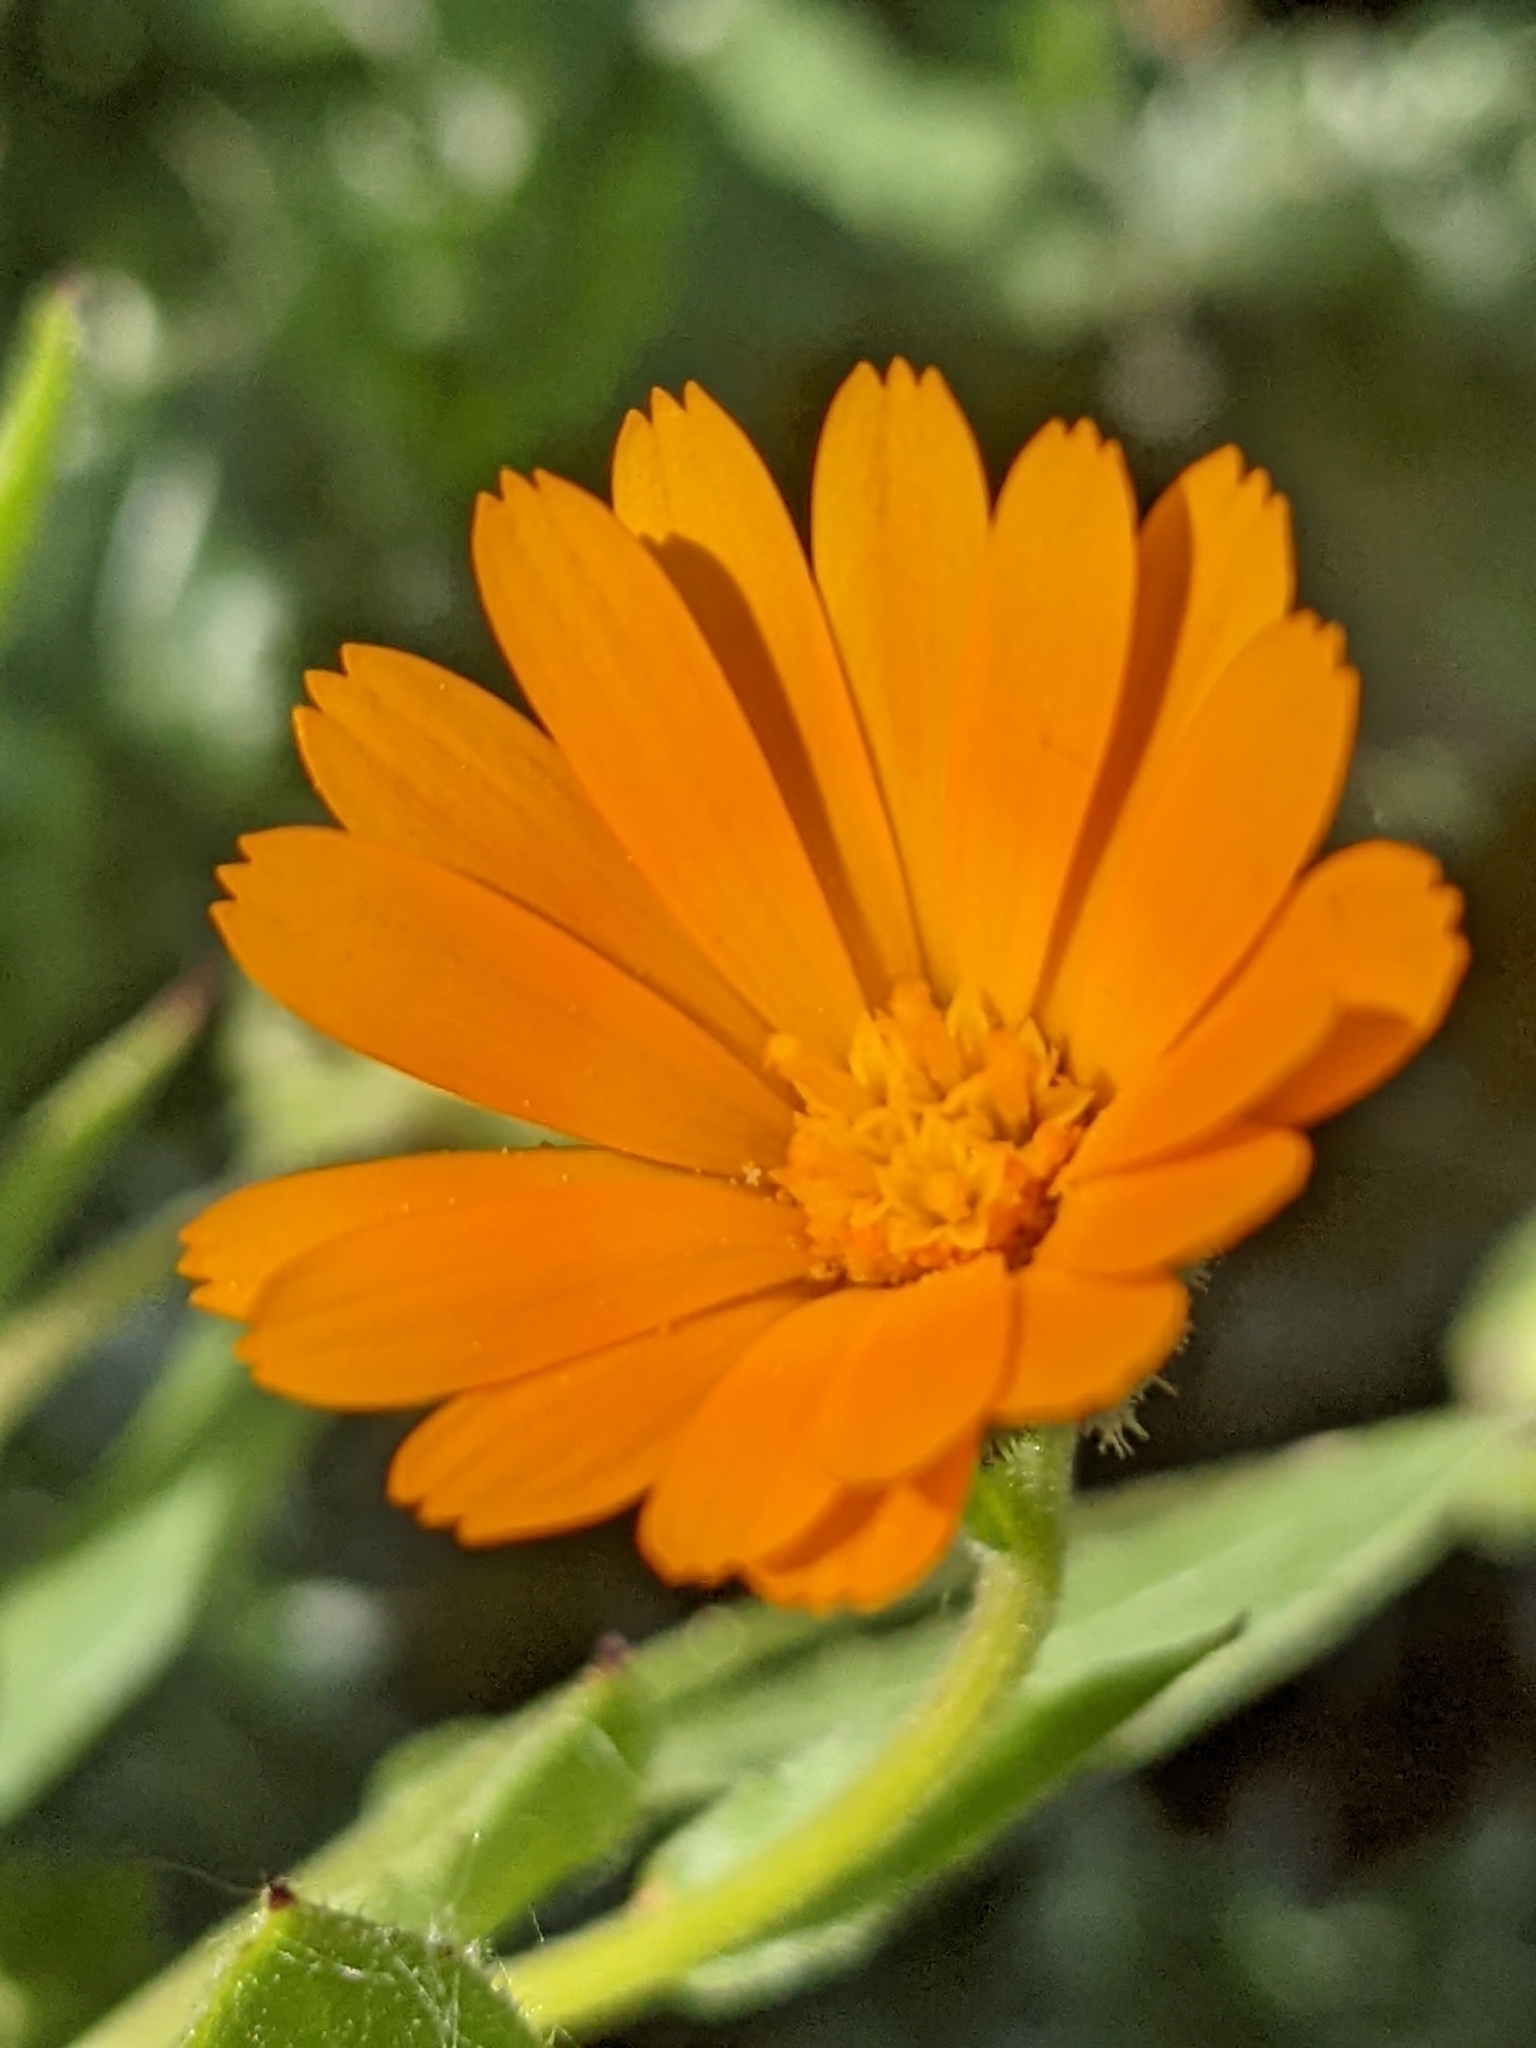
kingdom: Plantae
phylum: Tracheophyta
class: Magnoliopsida
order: Asterales
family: Asteraceae
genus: Calendula
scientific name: Calendula arvensis
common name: Field marigold
